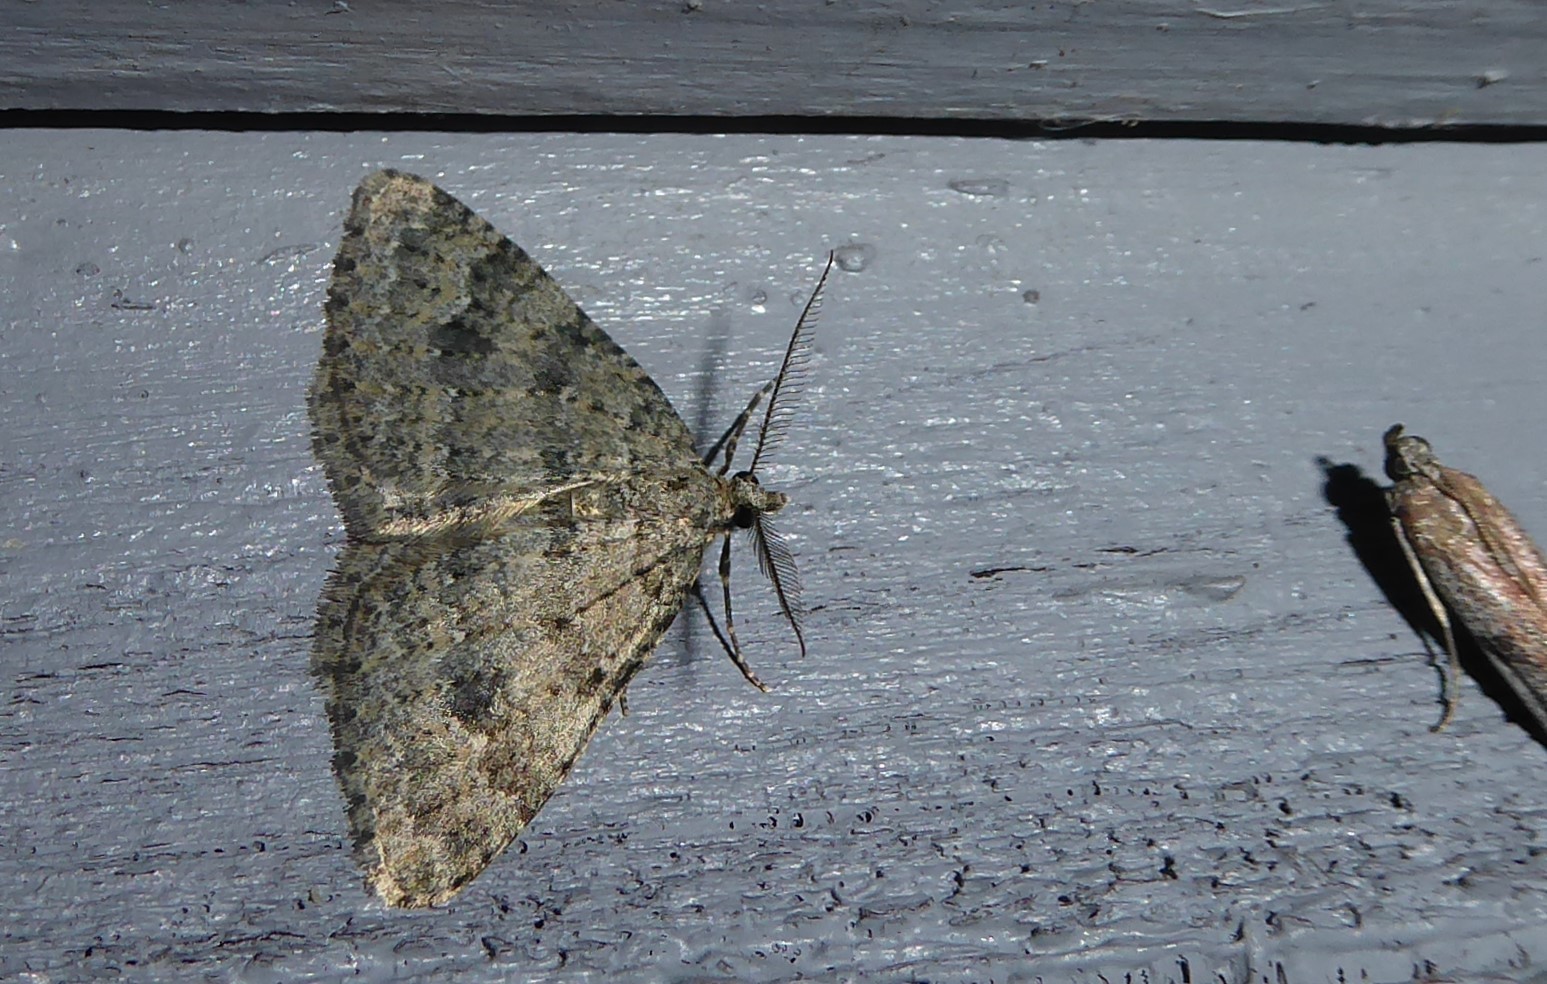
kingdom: Animalia
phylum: Arthropoda
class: Insecta
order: Lepidoptera
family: Geometridae
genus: Helastia
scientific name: Helastia corcularia
